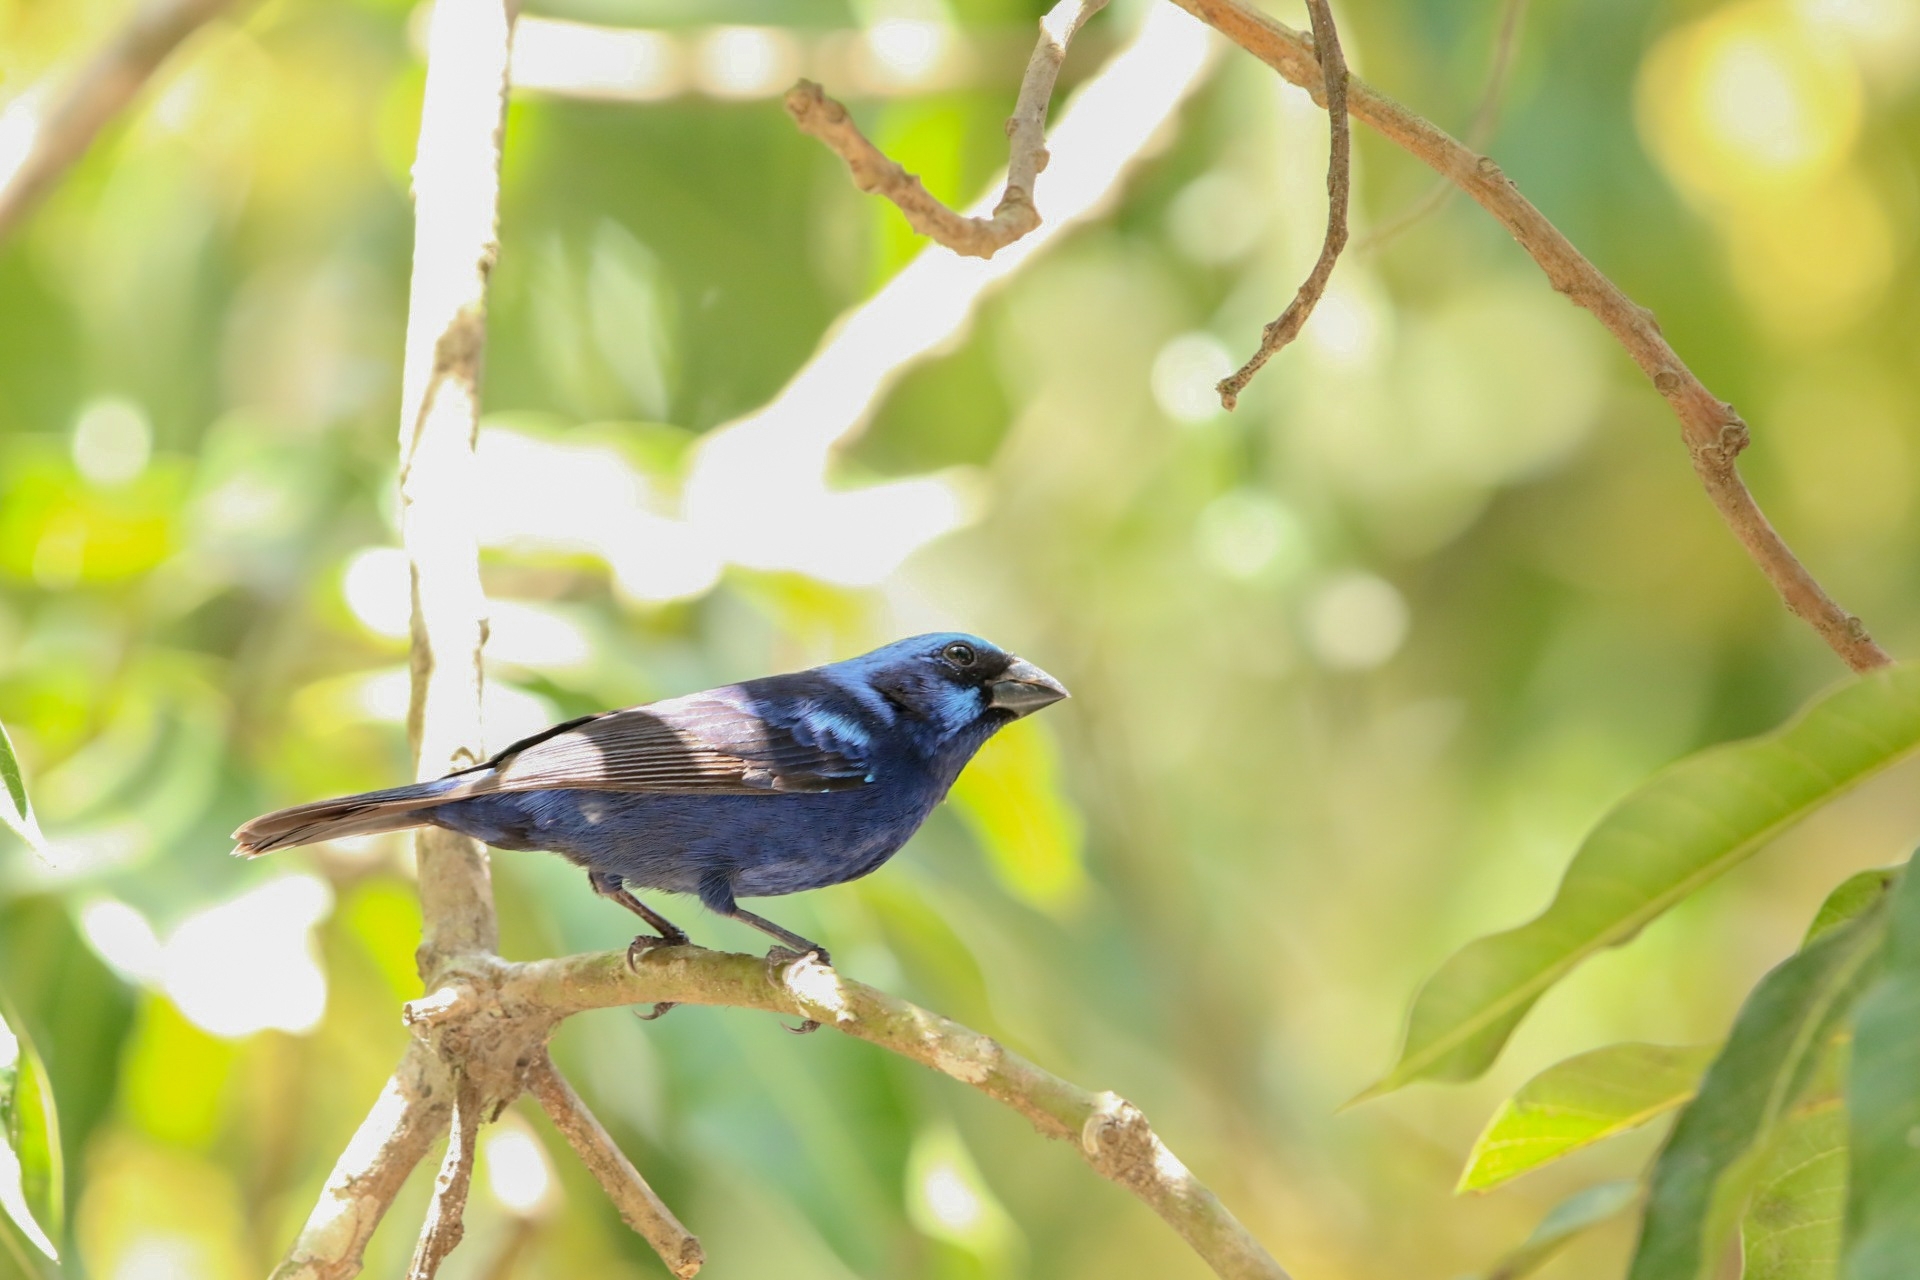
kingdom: Animalia
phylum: Chordata
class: Aves
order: Passeriformes
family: Cardinalidae
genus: Cyanocompsa
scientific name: Cyanocompsa parellina
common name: Blue bunting
